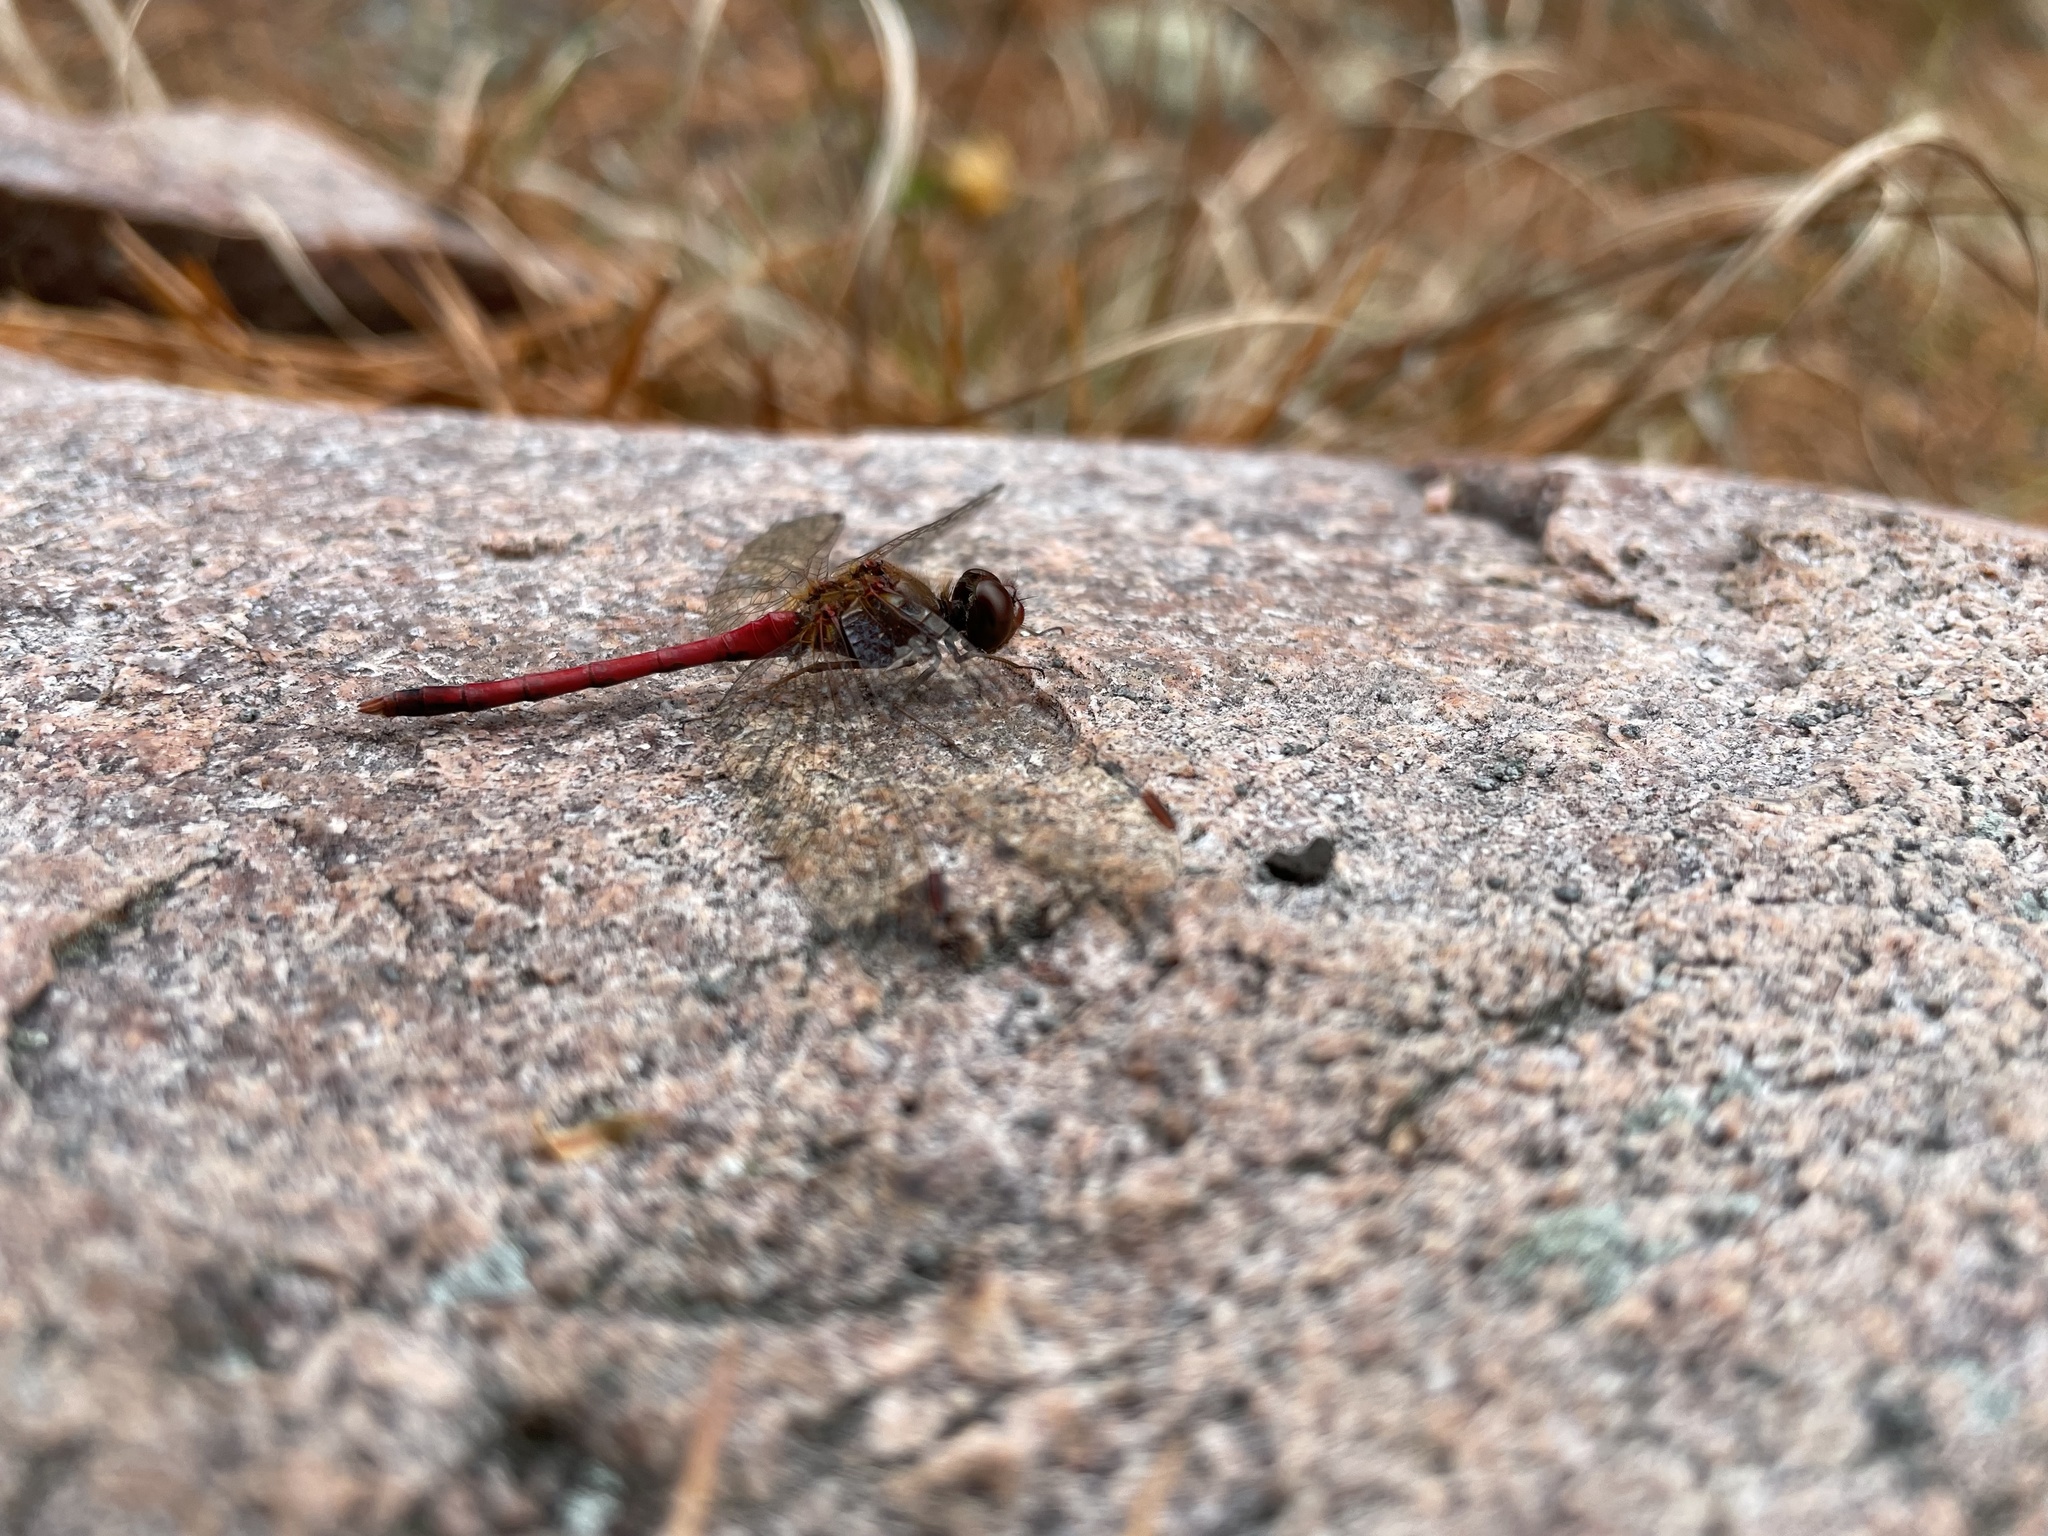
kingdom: Animalia
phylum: Arthropoda
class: Insecta
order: Odonata
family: Libellulidae
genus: Sympetrum
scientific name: Sympetrum vicinum
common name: Autumn meadowhawk
